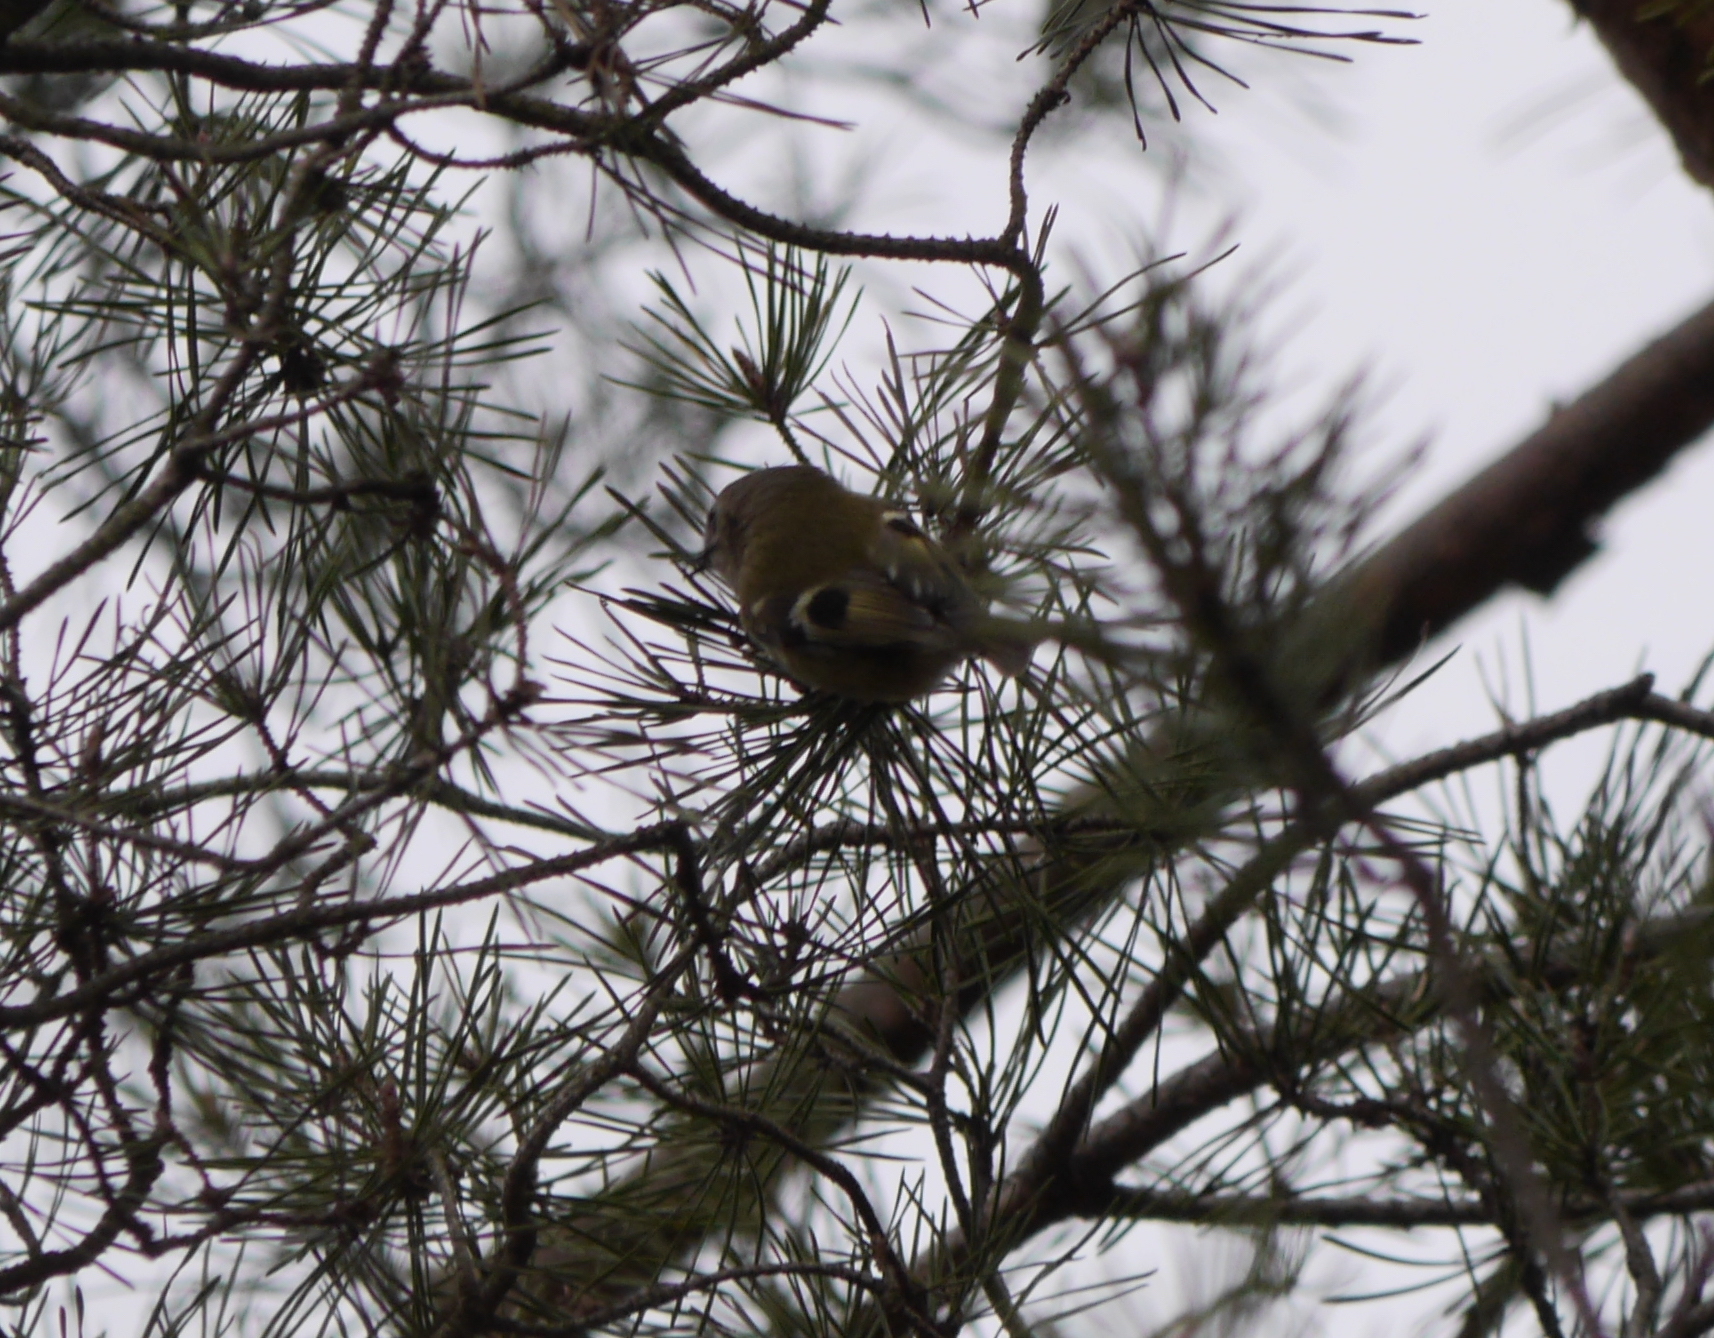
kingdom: Animalia
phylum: Chordata
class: Aves
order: Passeriformes
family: Regulidae
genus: Regulus
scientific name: Regulus regulus
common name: Goldcrest
